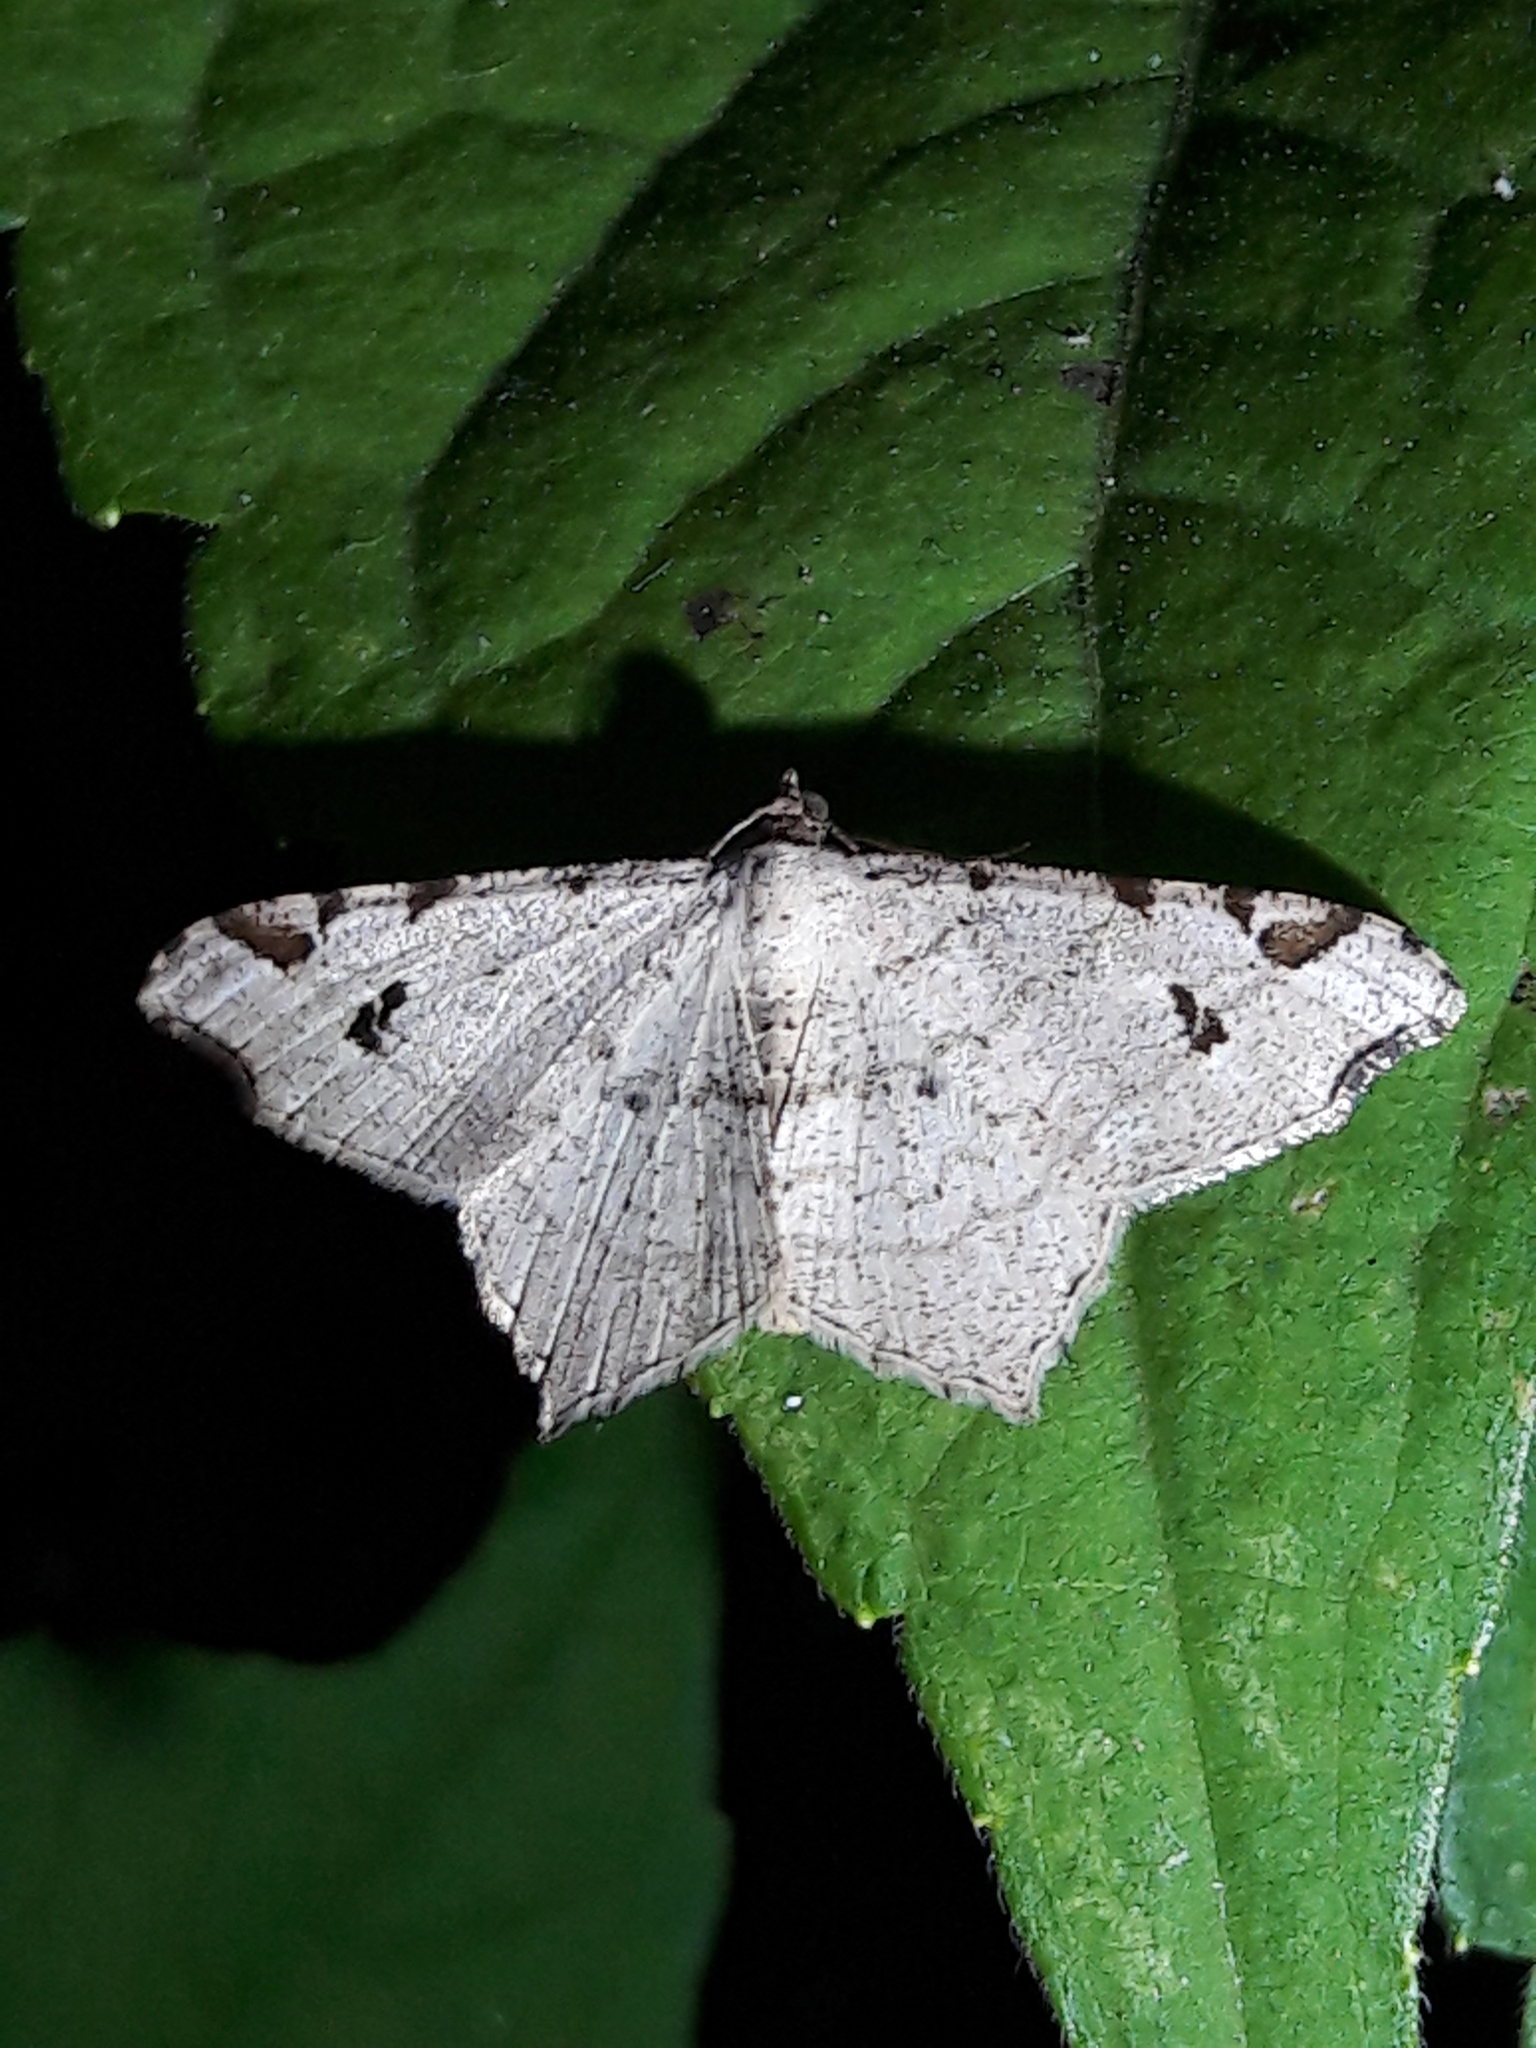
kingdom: Animalia
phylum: Arthropoda
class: Insecta
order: Lepidoptera
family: Geometridae
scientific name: Geometridae
